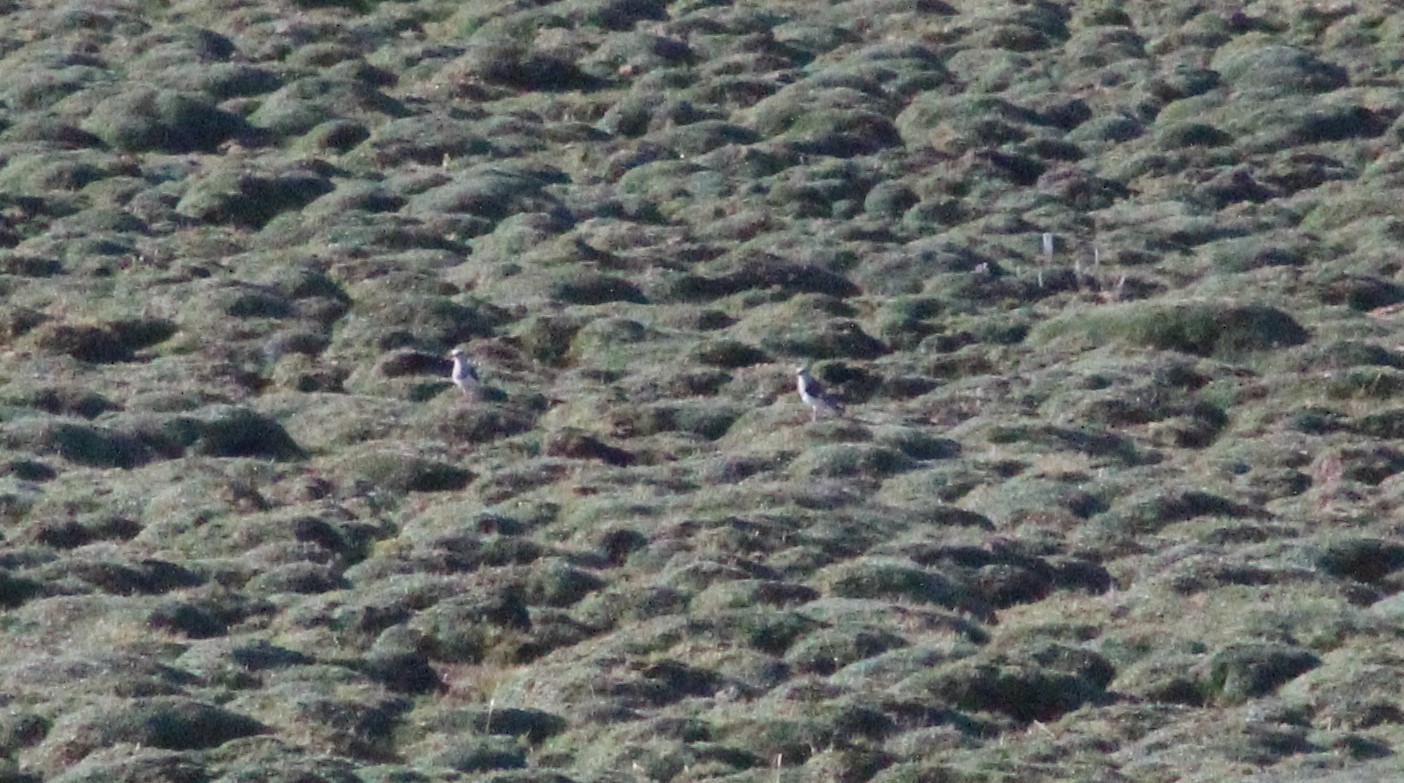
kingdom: Animalia
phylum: Chordata
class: Aves
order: Charadriiformes
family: Charadriidae
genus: Vanellus
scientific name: Vanellus resplendens
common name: Andean lapwing
